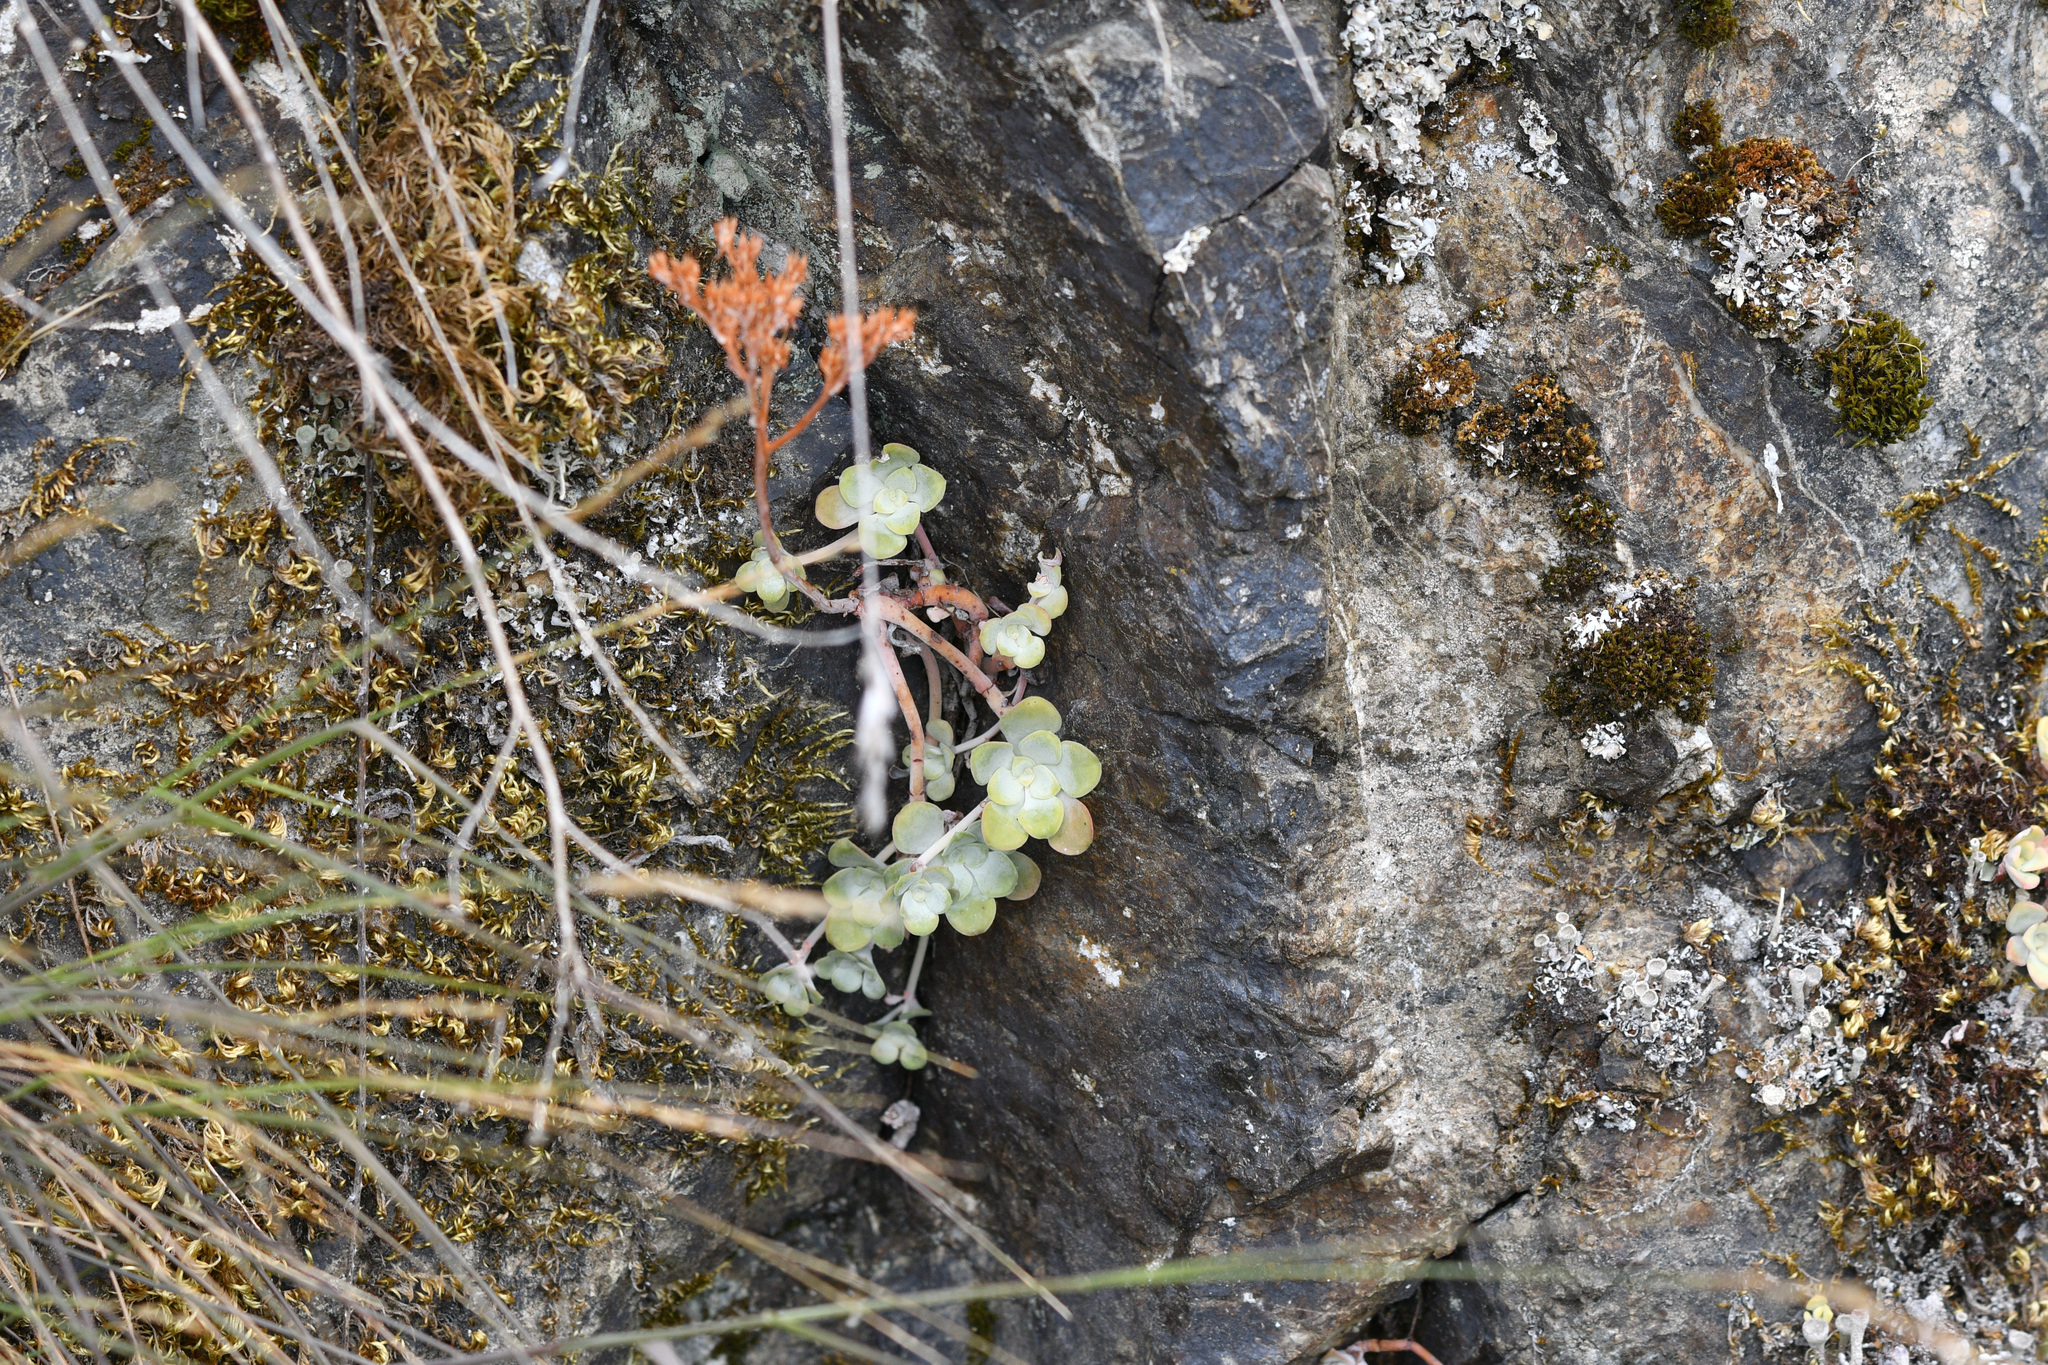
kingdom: Plantae
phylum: Tracheophyta
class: Magnoliopsida
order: Saxifragales
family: Crassulaceae
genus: Sedum
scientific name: Sedum spathulifolium
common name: Colorado stonecrop
